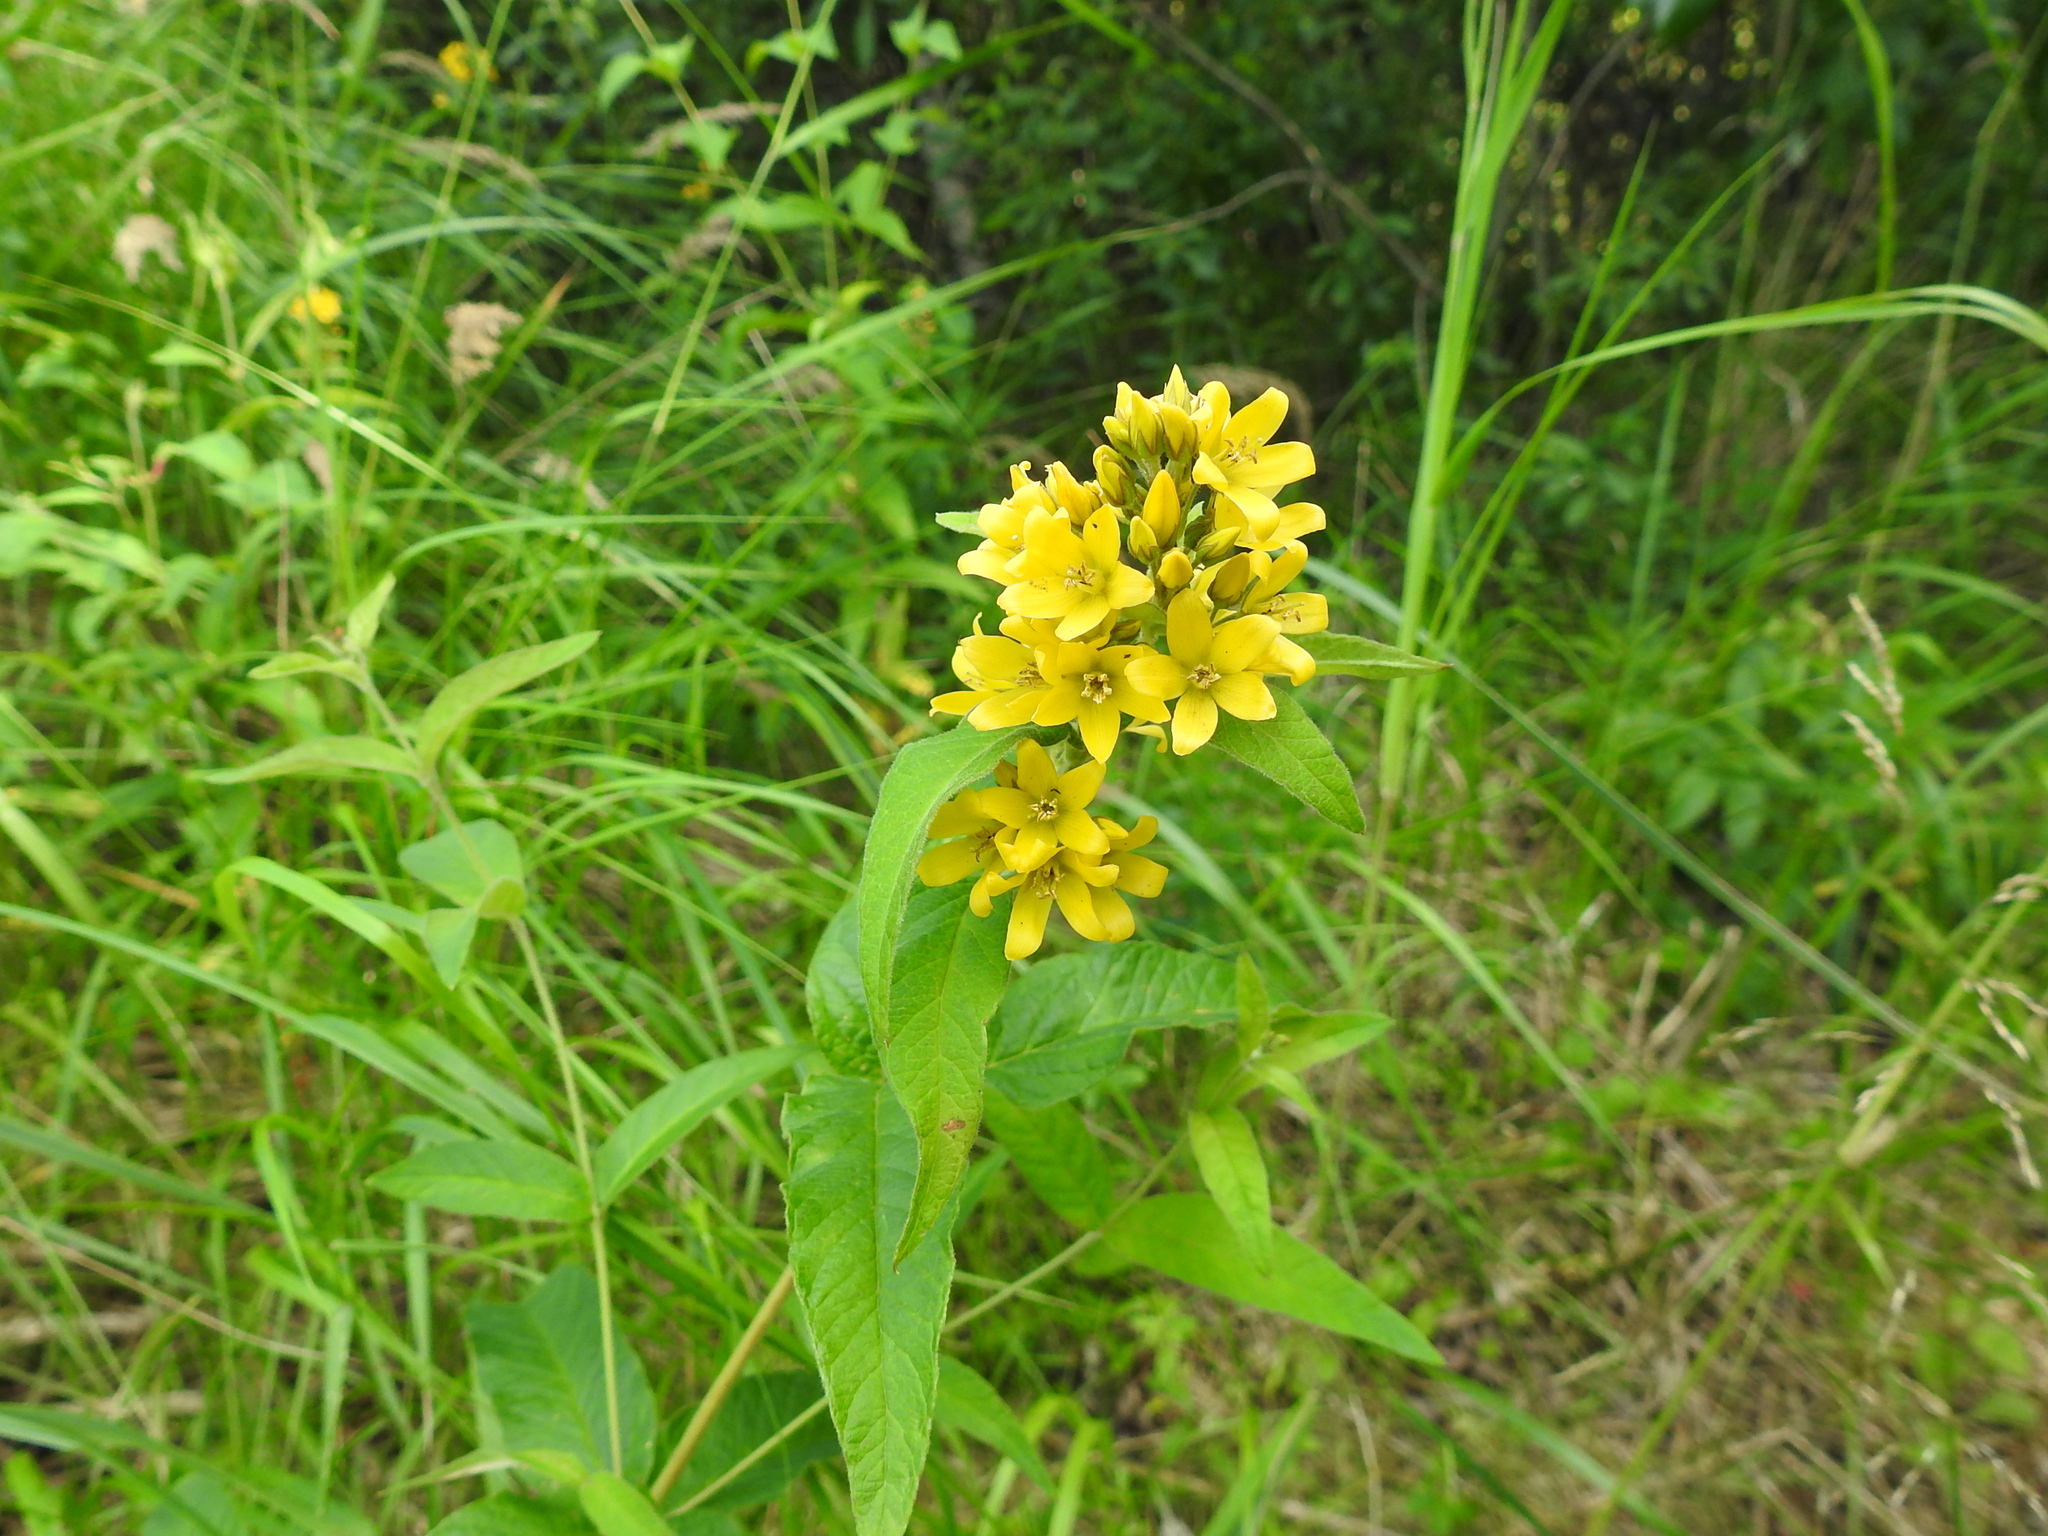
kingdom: Plantae
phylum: Tracheophyta
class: Magnoliopsida
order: Ericales
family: Primulaceae
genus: Lysimachia
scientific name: Lysimachia vulgaris
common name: Yellow loosestrife
